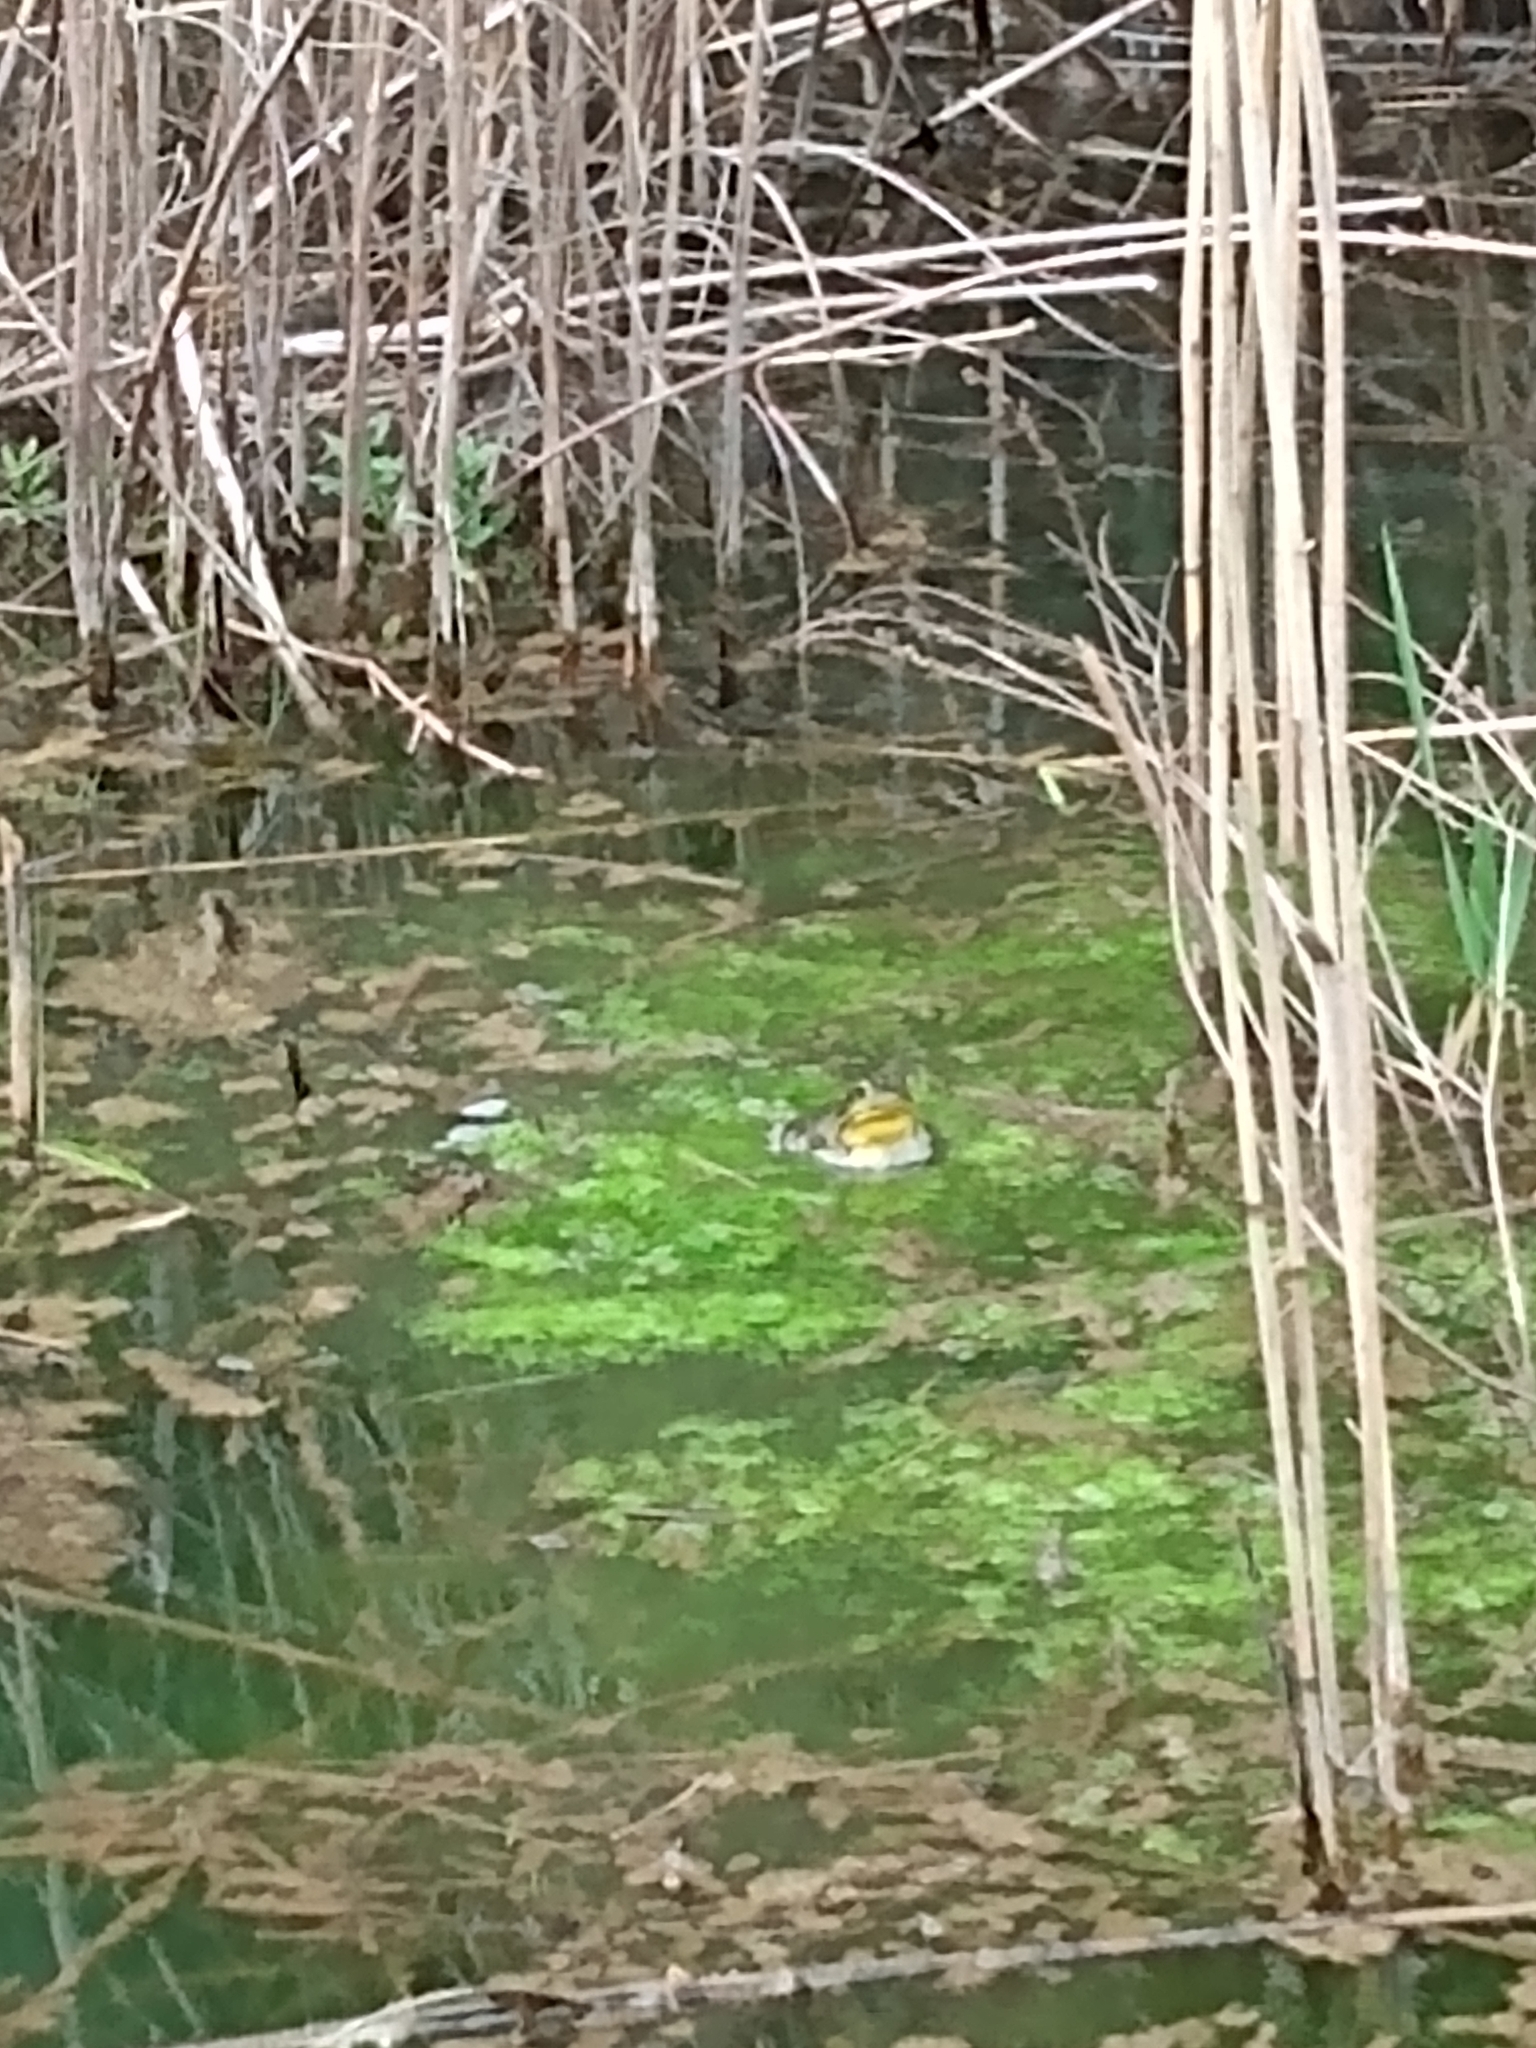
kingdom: Animalia
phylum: Chordata
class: Amphibia
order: Anura
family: Ranidae
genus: Lithobates
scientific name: Lithobates catesbeianus
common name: American bullfrog
